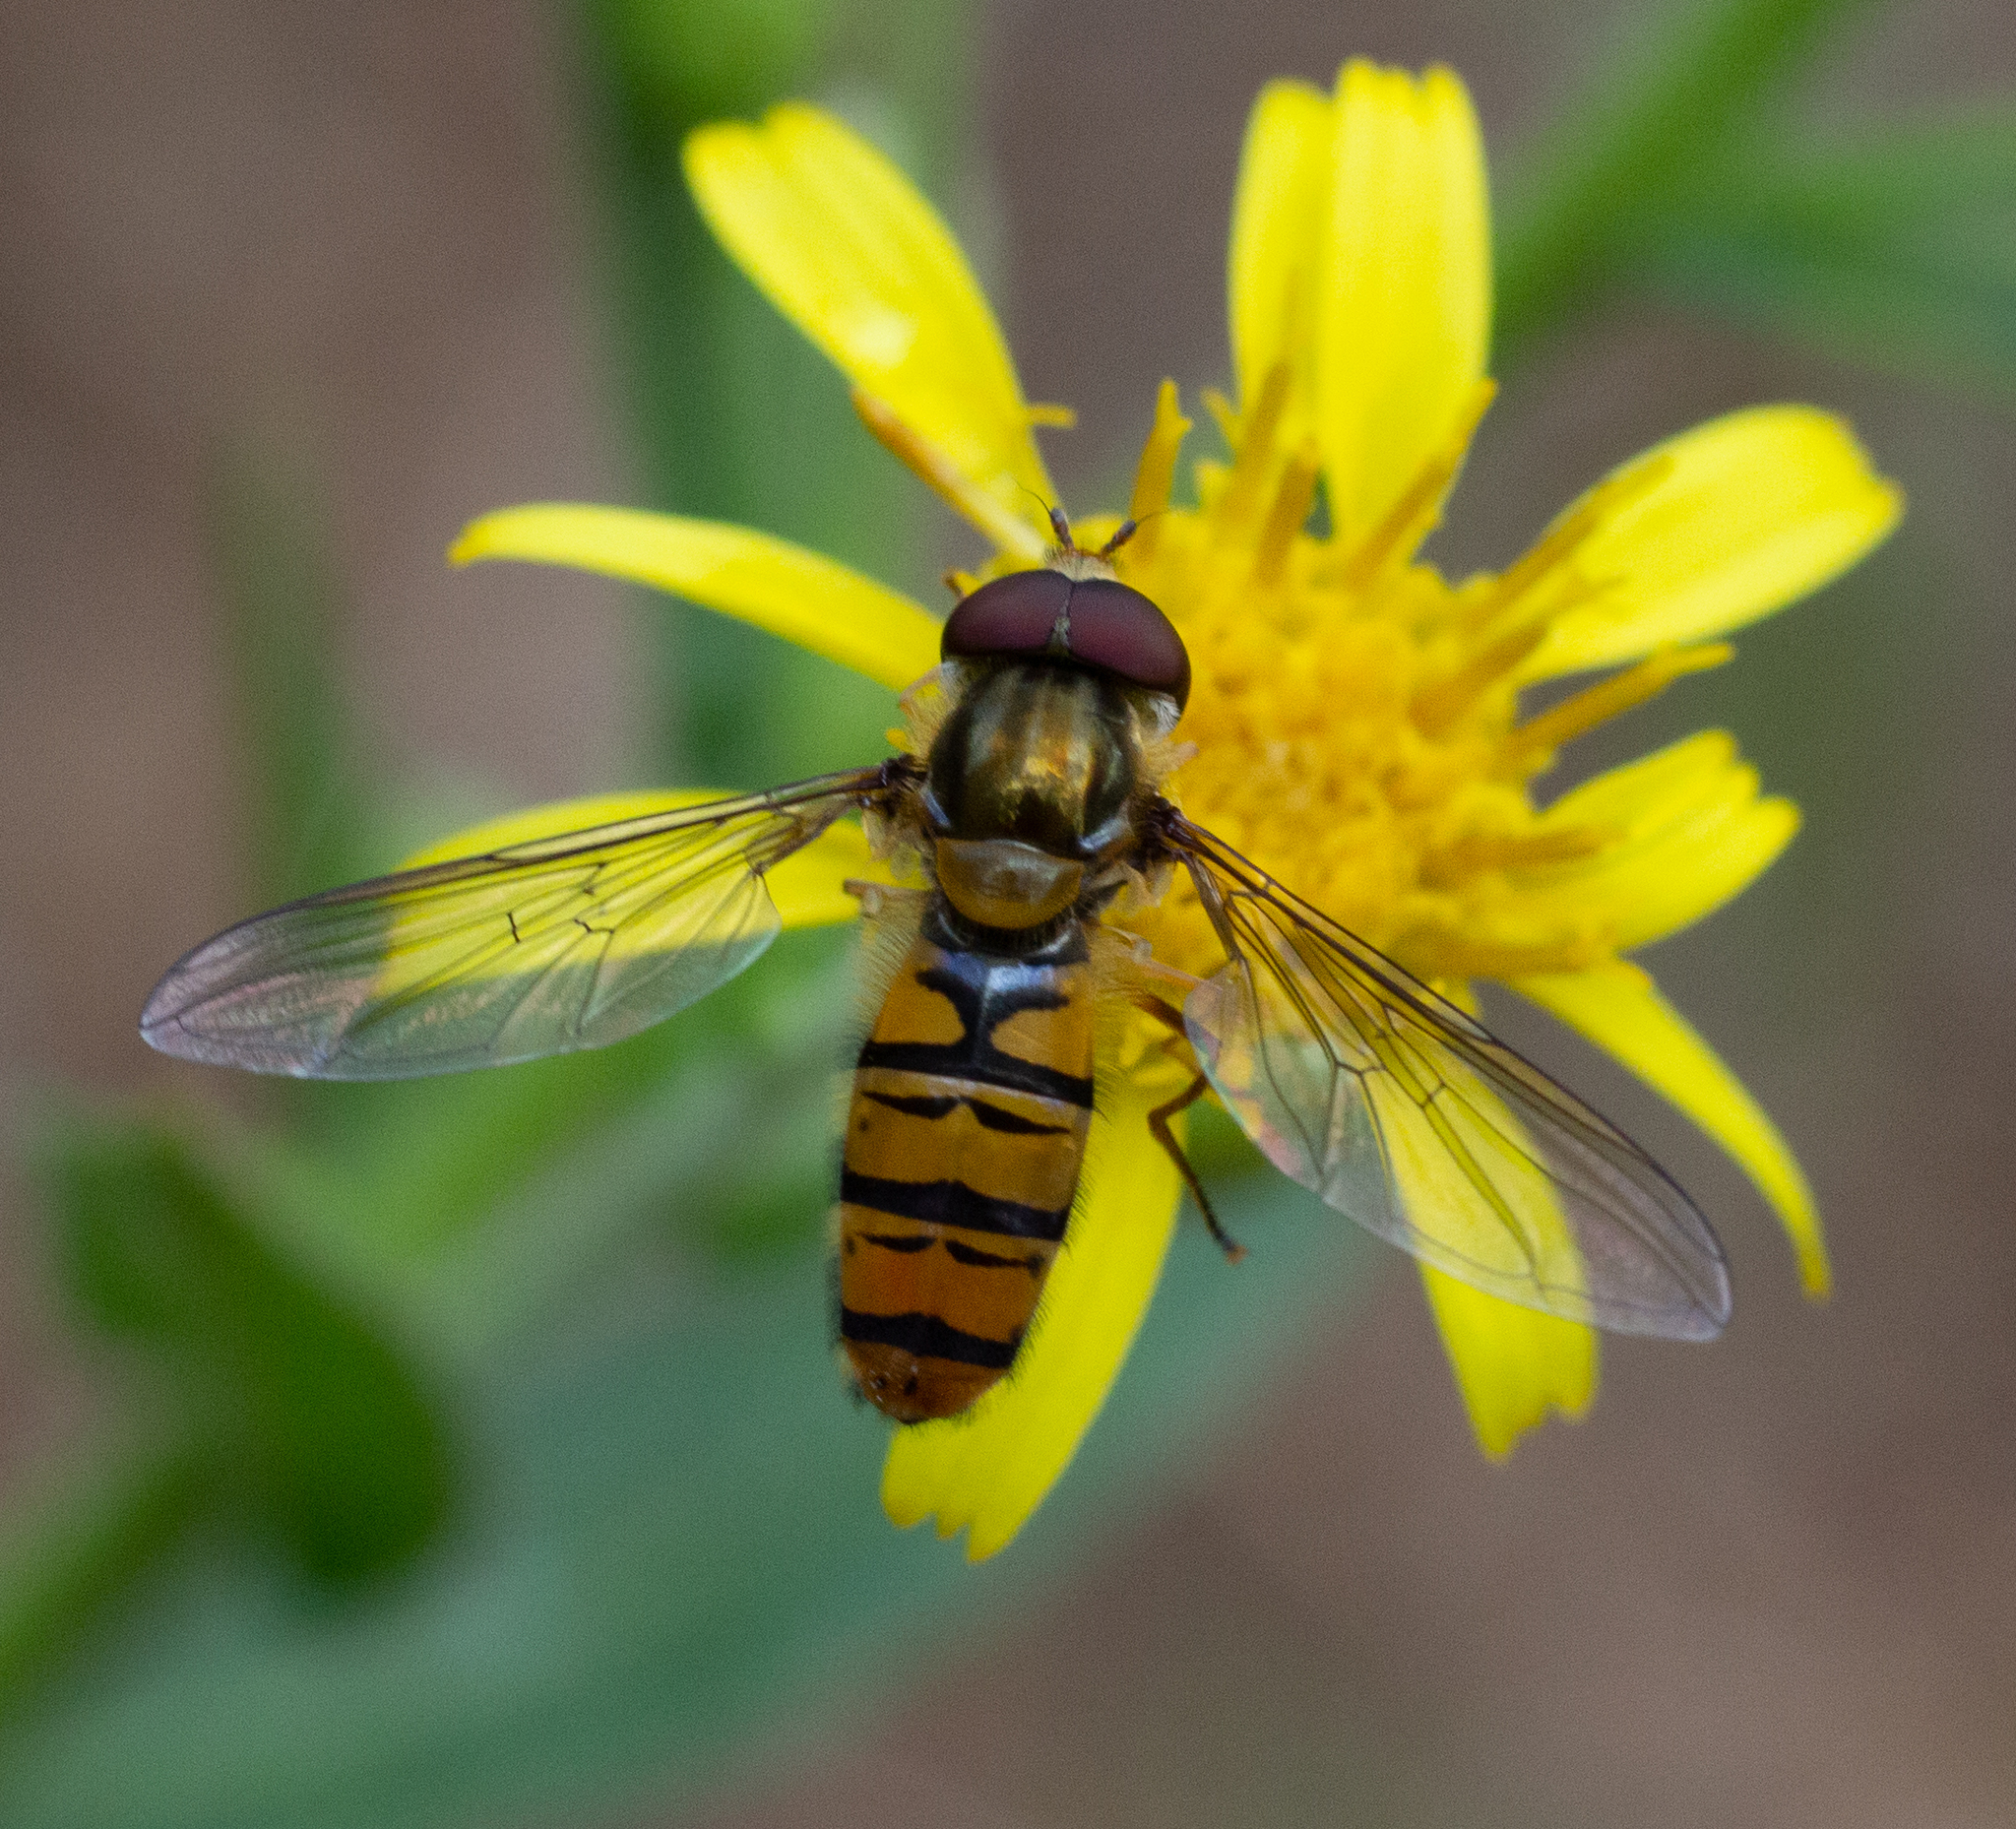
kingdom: Animalia
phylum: Arthropoda
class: Insecta
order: Diptera
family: Syrphidae
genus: Episyrphus
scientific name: Episyrphus balteatus
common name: Marmalade hoverfly
